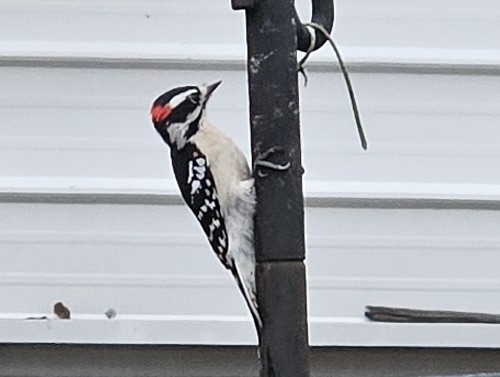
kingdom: Animalia
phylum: Chordata
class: Aves
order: Piciformes
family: Picidae
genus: Dryobates
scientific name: Dryobates pubescens
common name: Downy woodpecker
